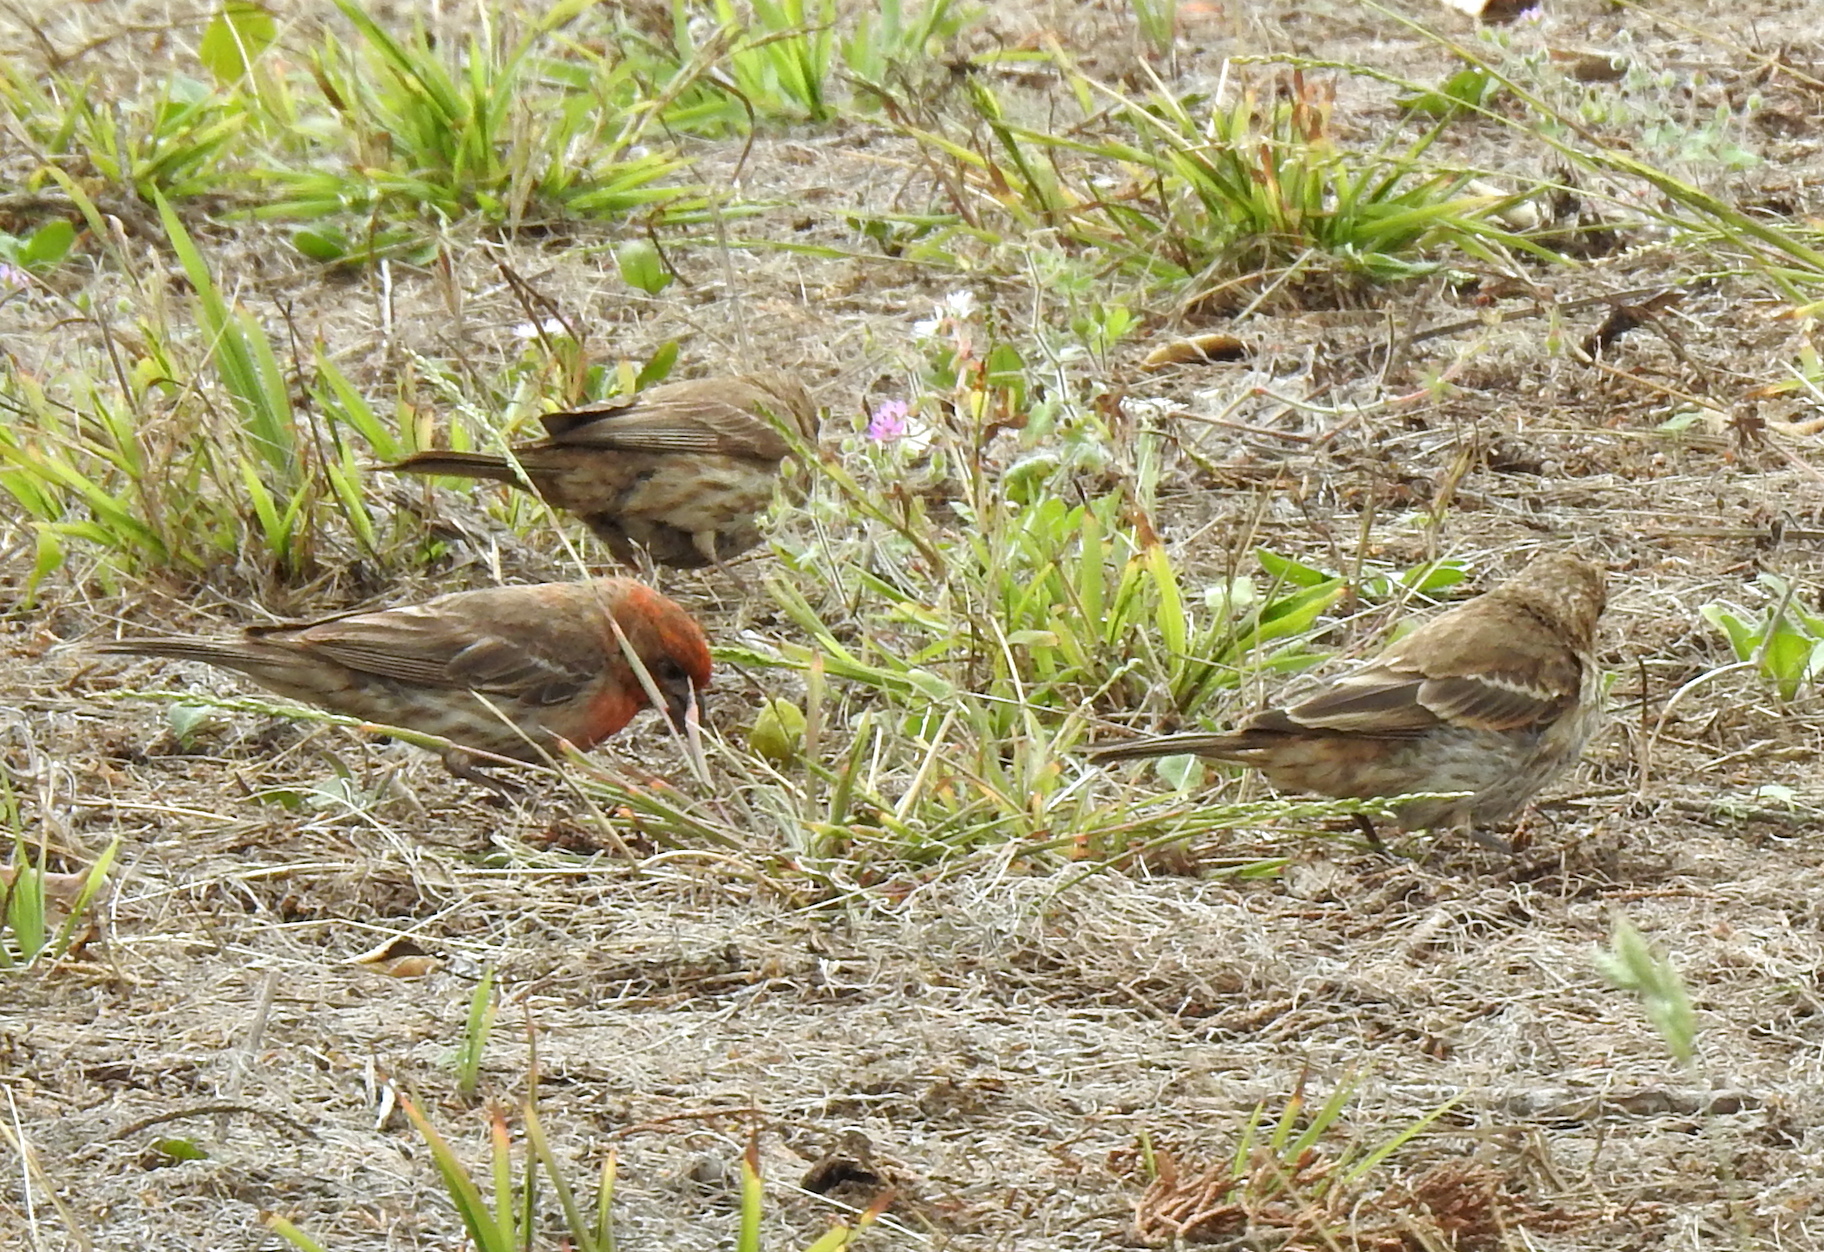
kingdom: Animalia
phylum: Chordata
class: Aves
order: Passeriformes
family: Fringillidae
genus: Haemorhous
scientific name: Haemorhous mexicanus
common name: House finch
